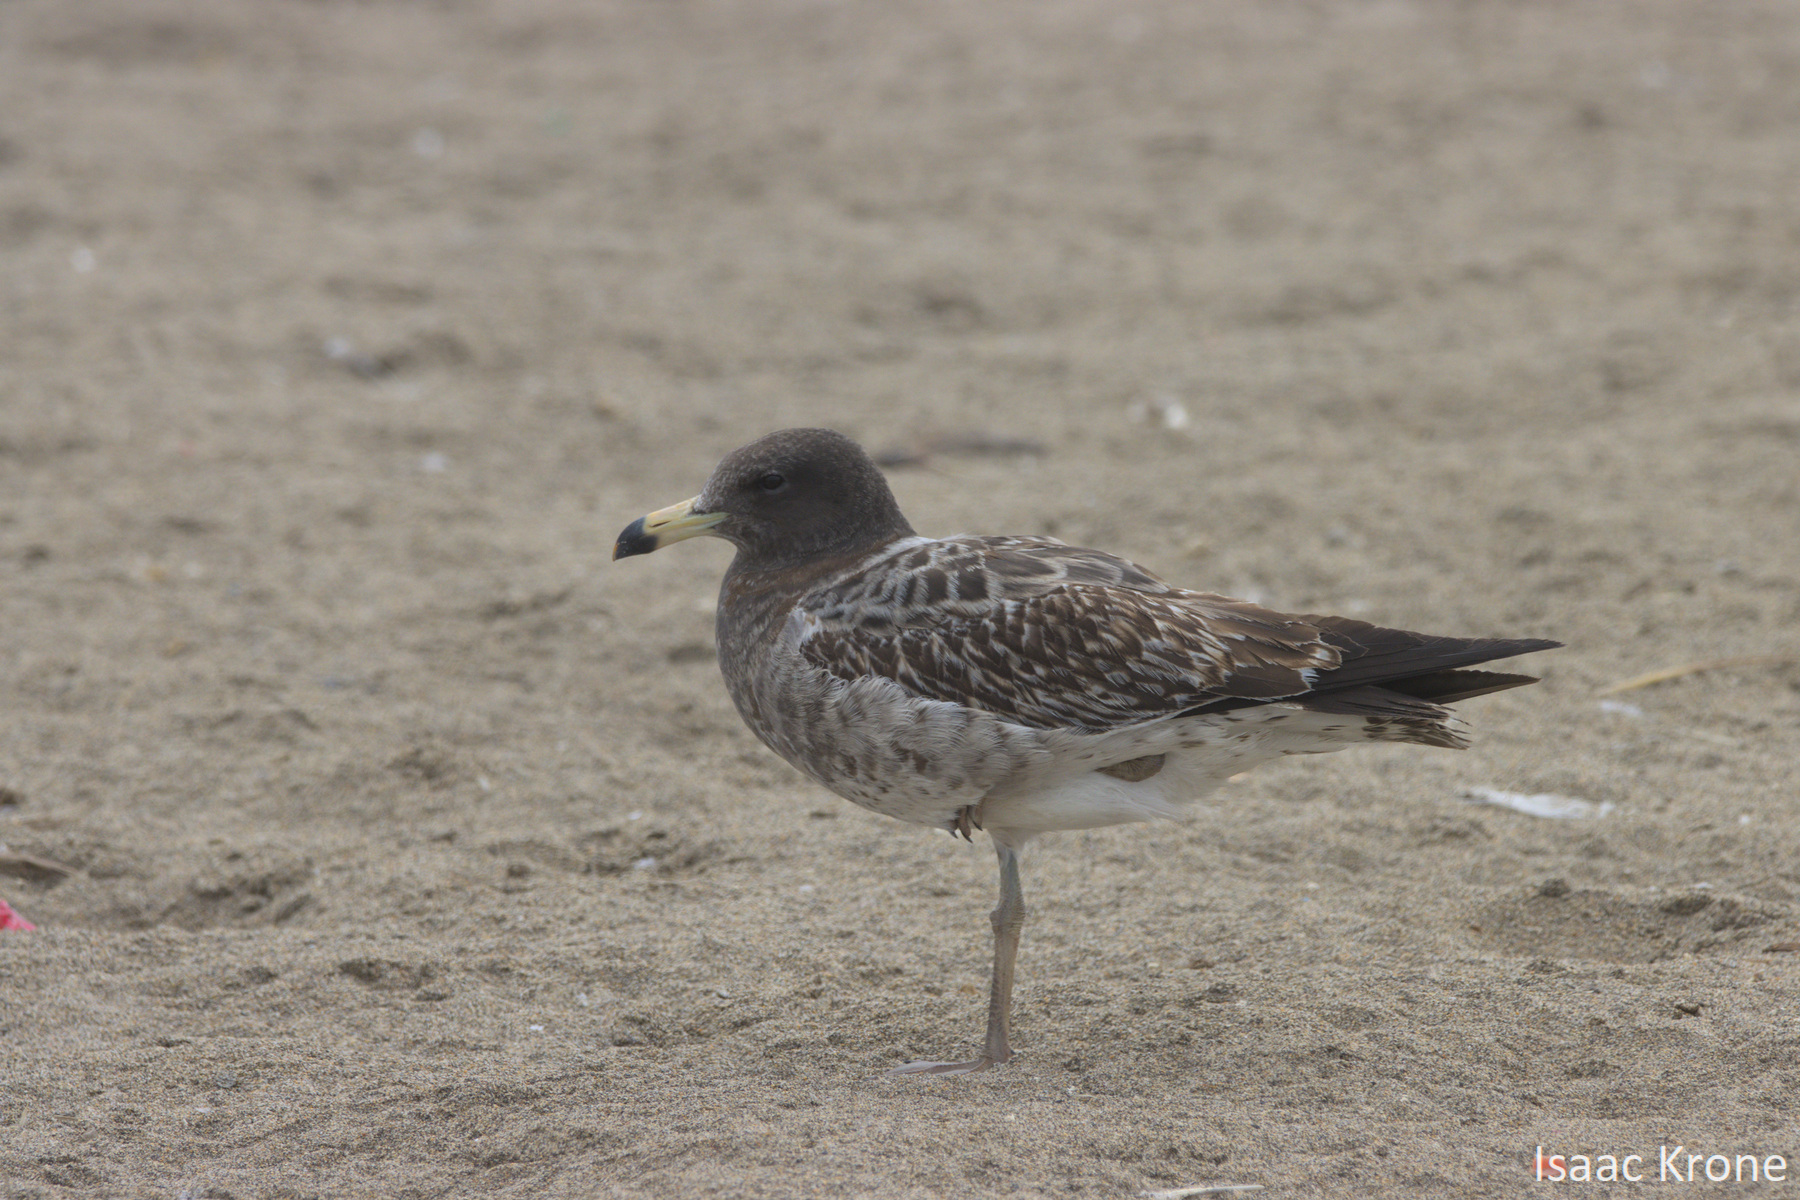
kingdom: Animalia
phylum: Chordata
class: Aves
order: Charadriiformes
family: Laridae
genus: Larus
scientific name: Larus belcheri
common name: Belcher's gull
